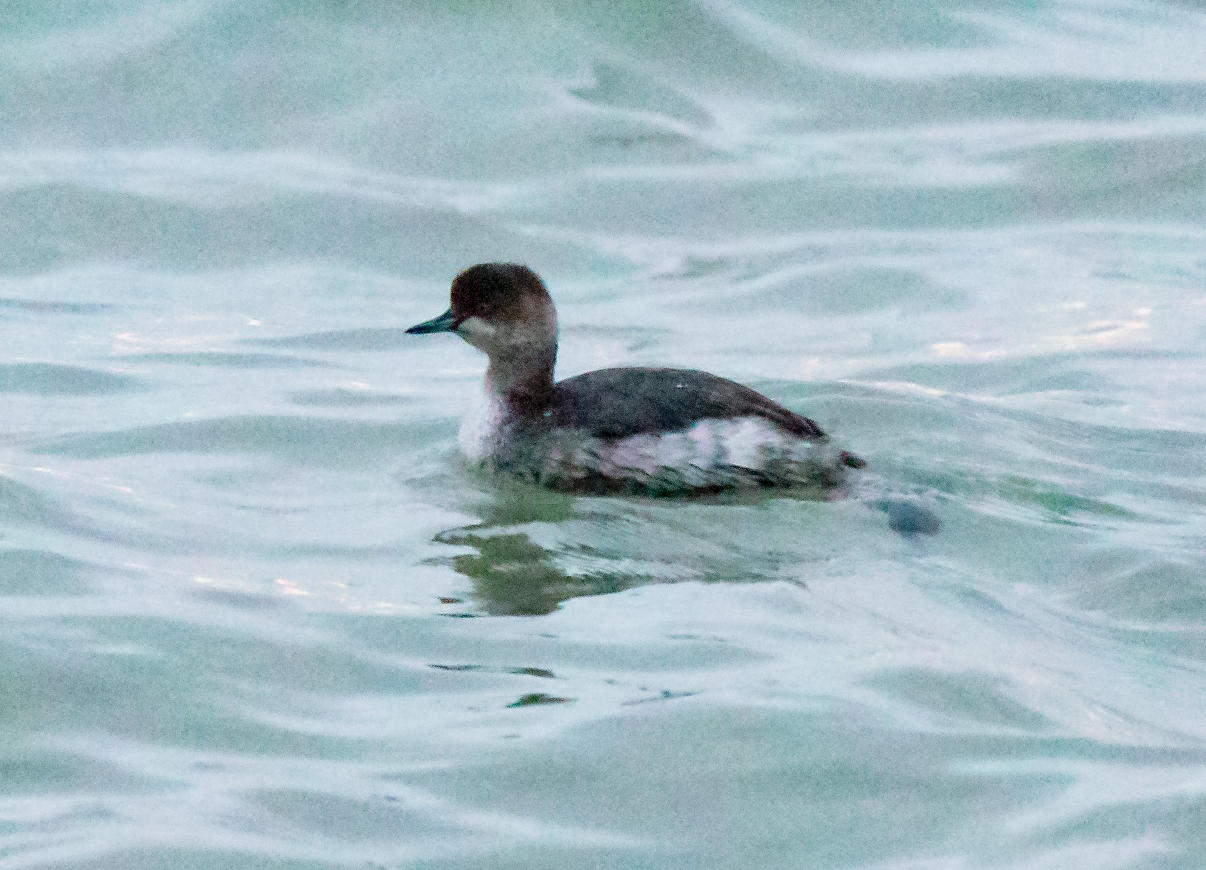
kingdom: Animalia
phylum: Chordata
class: Aves
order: Podicipediformes
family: Podicipedidae
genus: Podiceps
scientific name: Podiceps nigricollis
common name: Black-necked grebe
